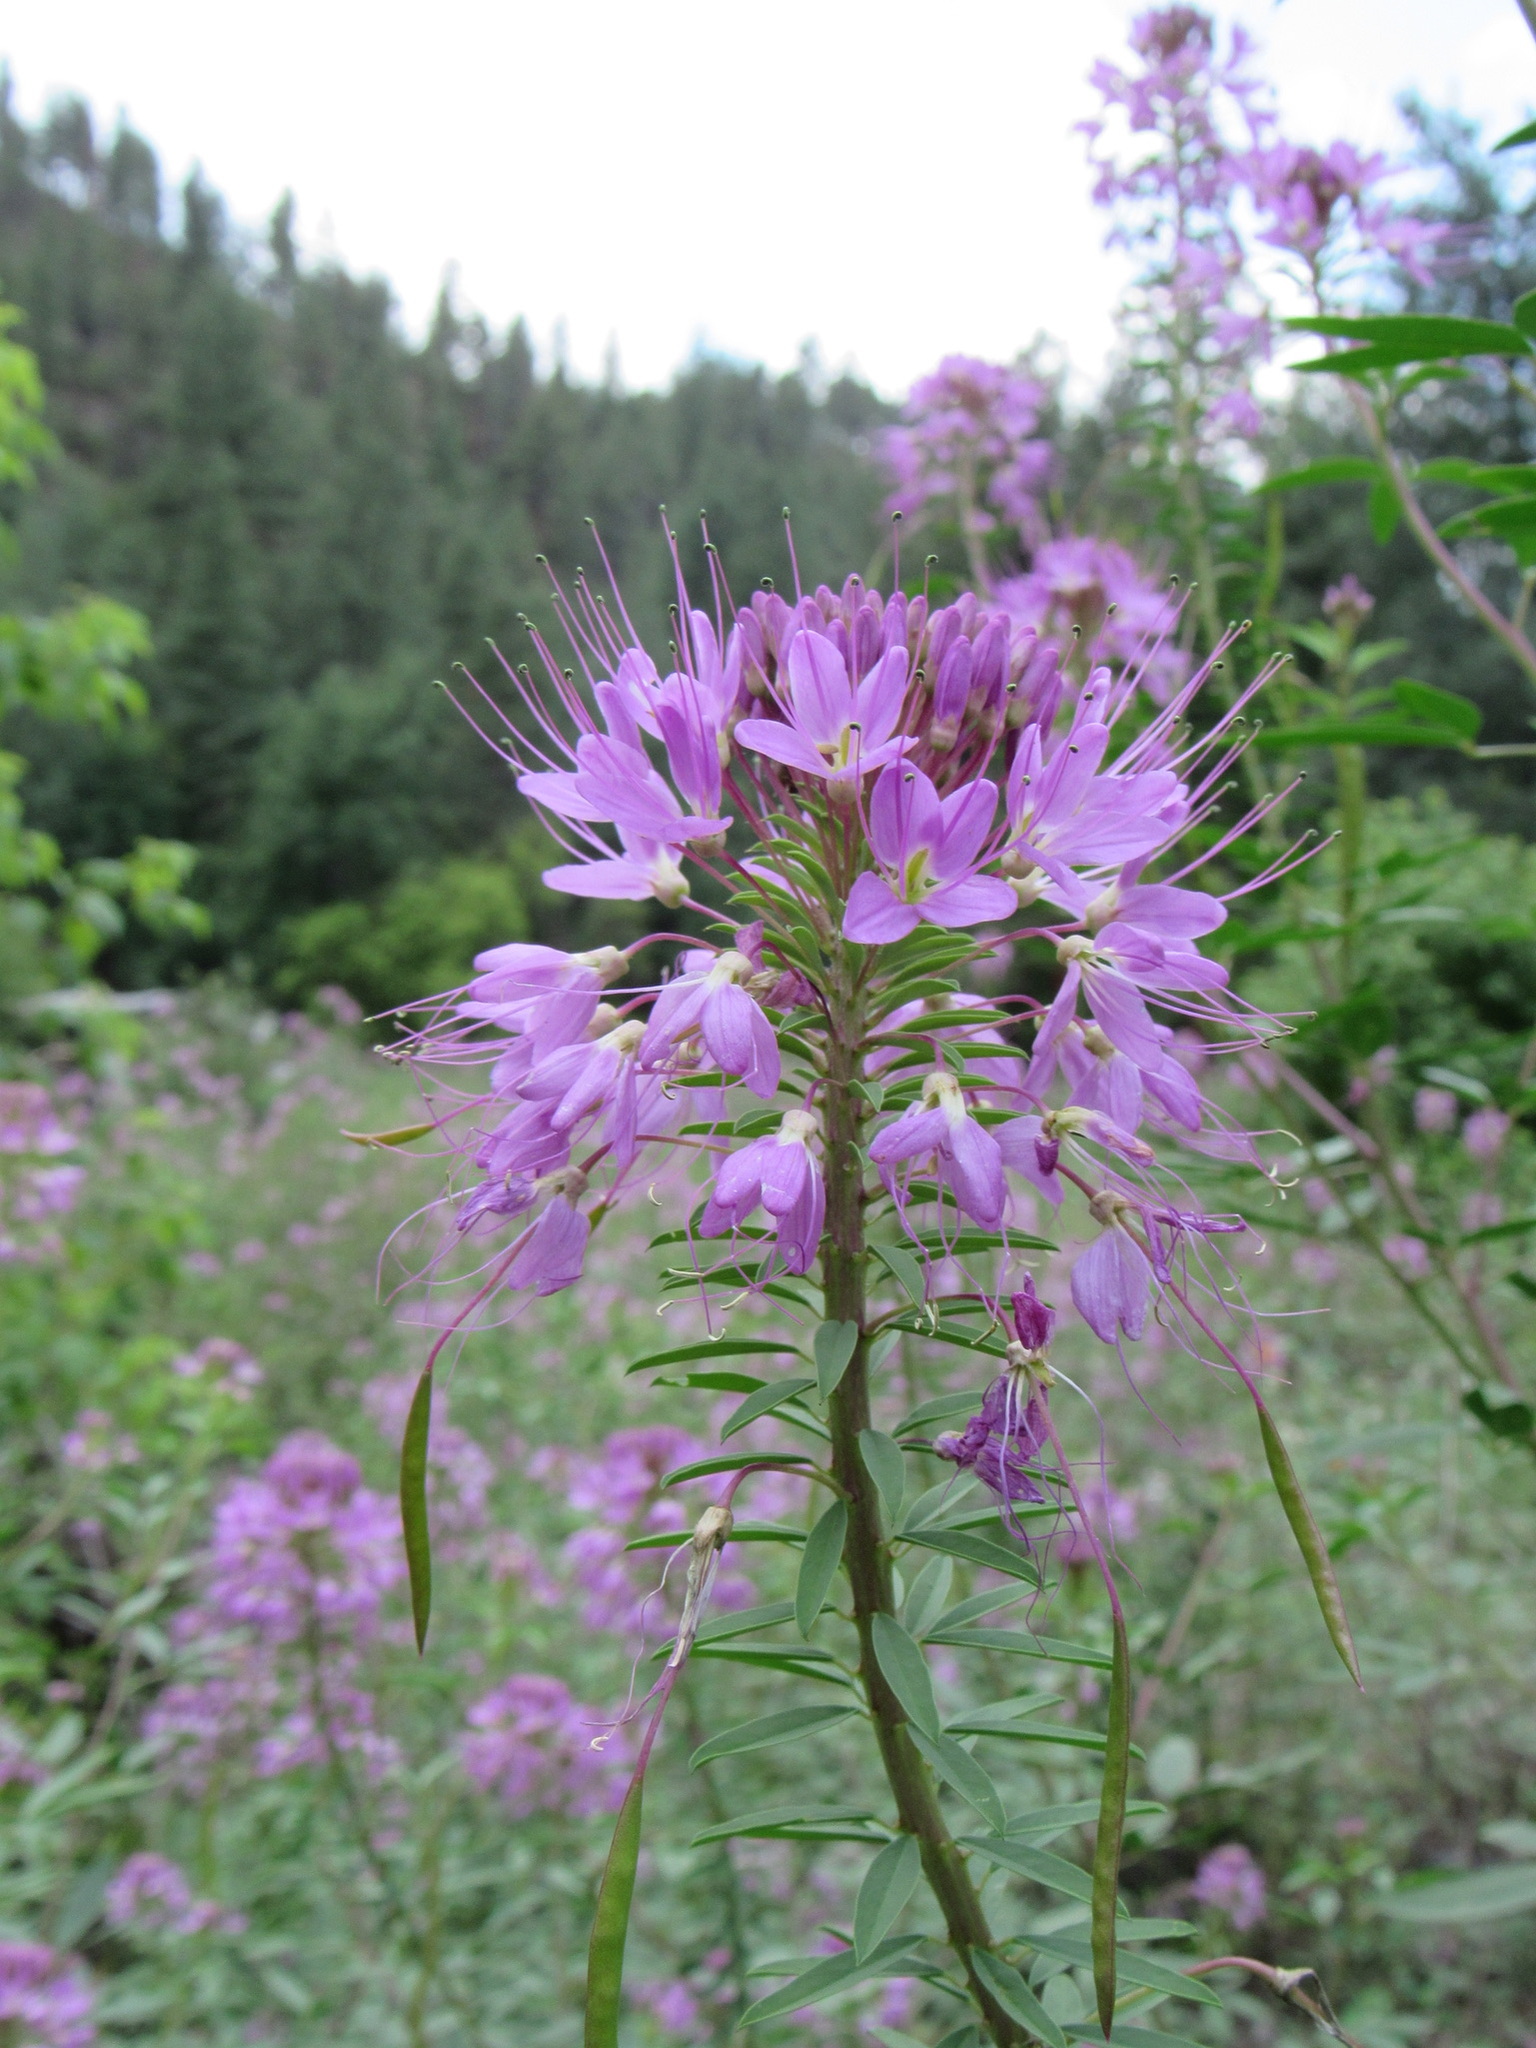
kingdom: Plantae
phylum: Tracheophyta
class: Magnoliopsida
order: Brassicales
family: Cleomaceae
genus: Cleomella
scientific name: Cleomella serrulata
